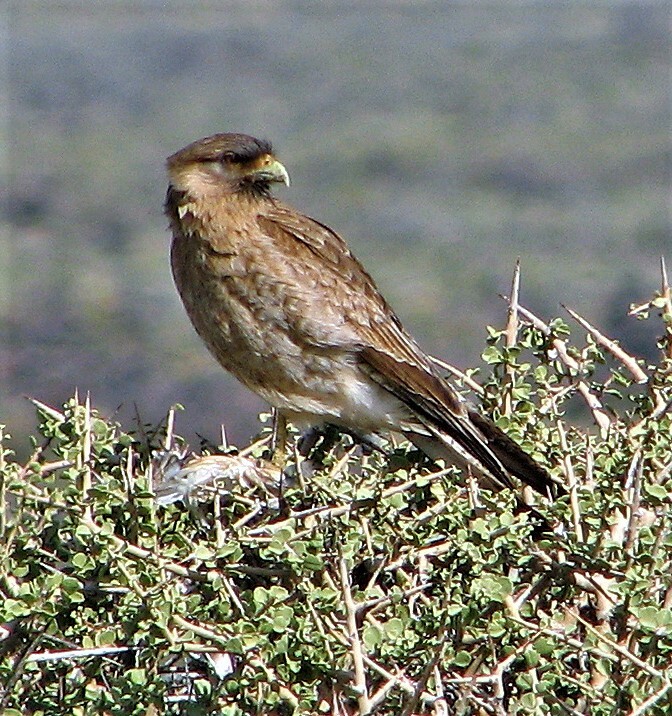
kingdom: Animalia
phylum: Chordata
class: Aves
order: Falconiformes
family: Falconidae
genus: Daptrius
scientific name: Daptrius
